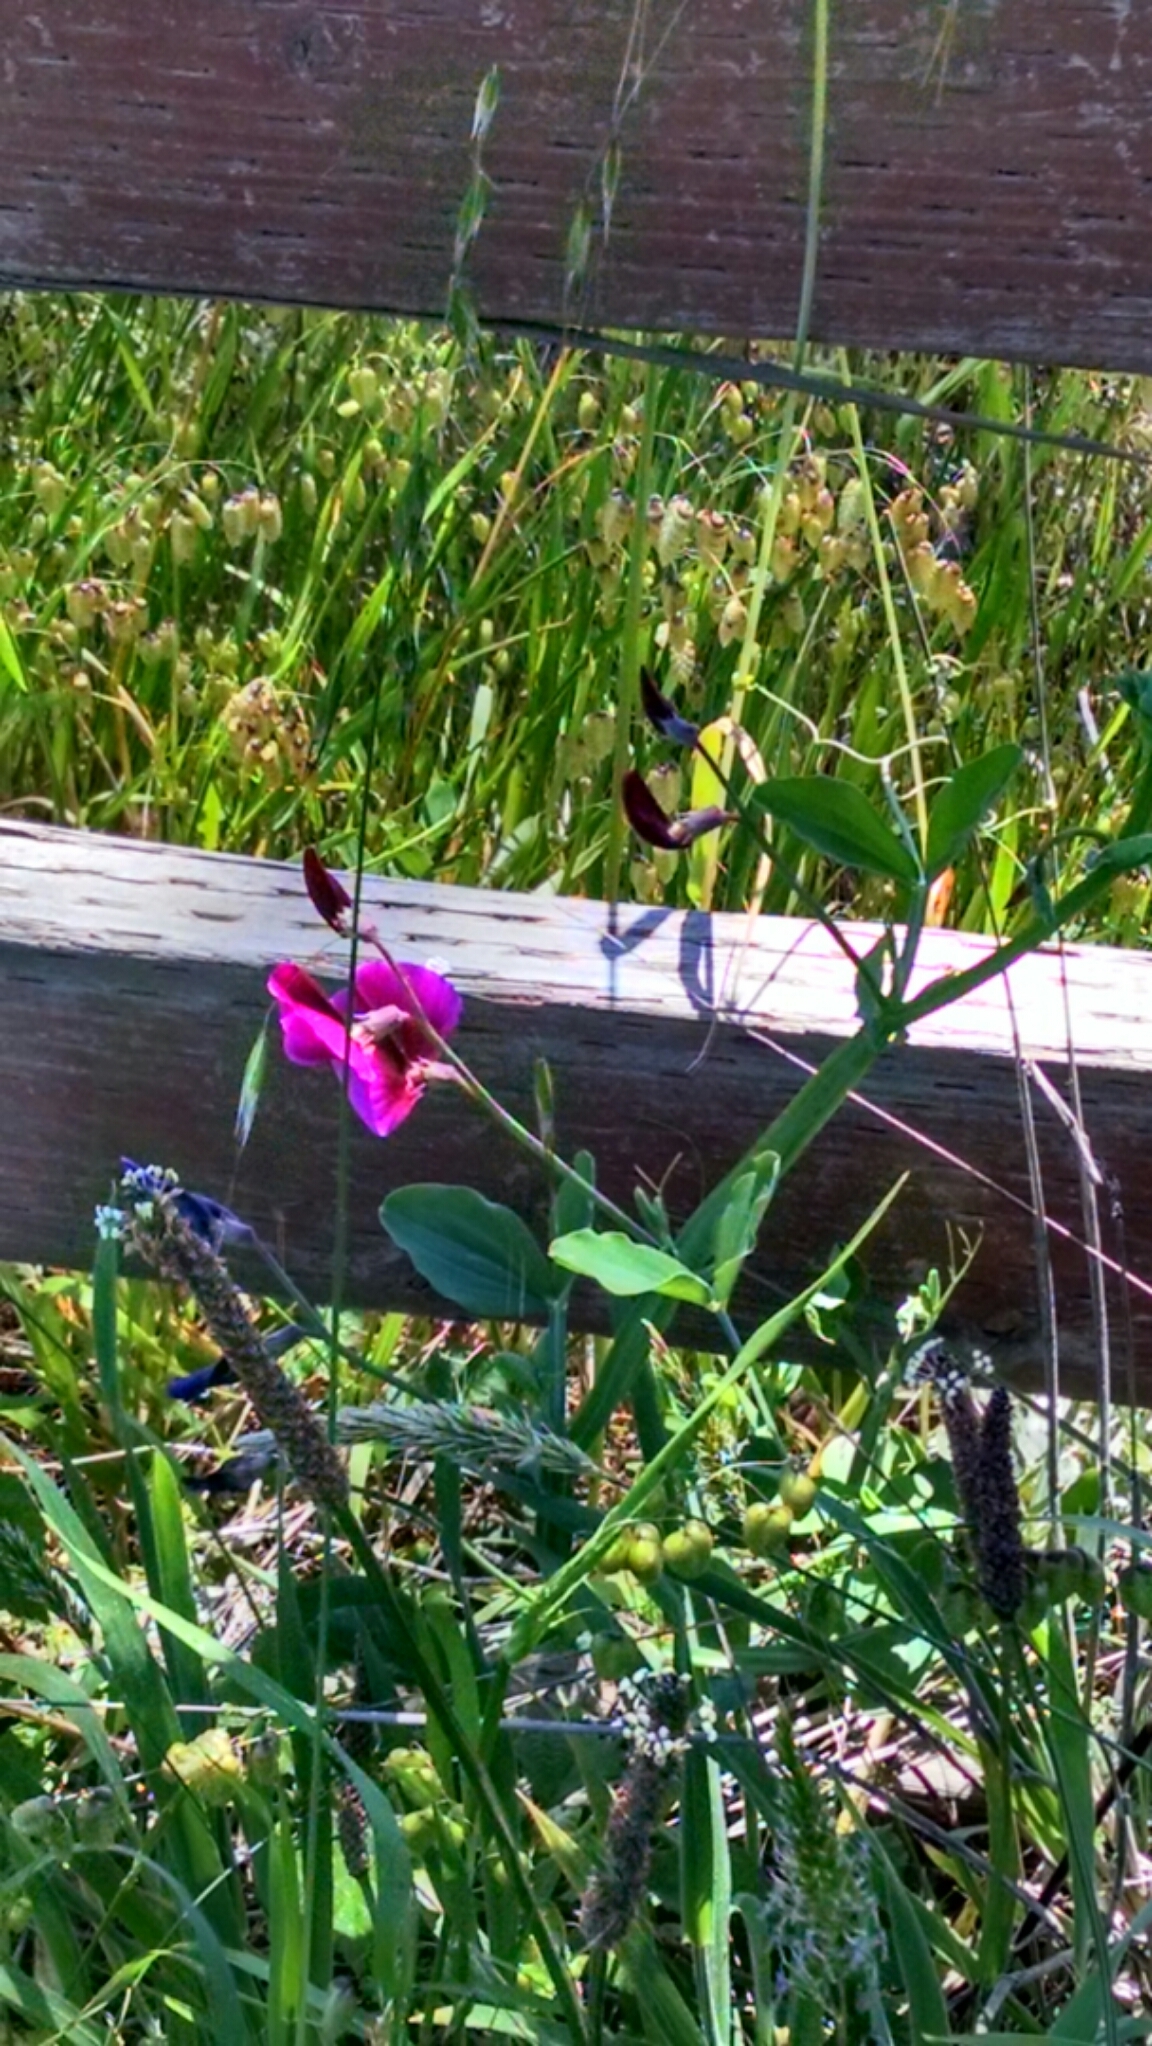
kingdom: Plantae
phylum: Tracheophyta
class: Magnoliopsida
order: Fabales
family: Fabaceae
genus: Lathyrus
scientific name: Lathyrus latifolius
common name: Perennial pea
